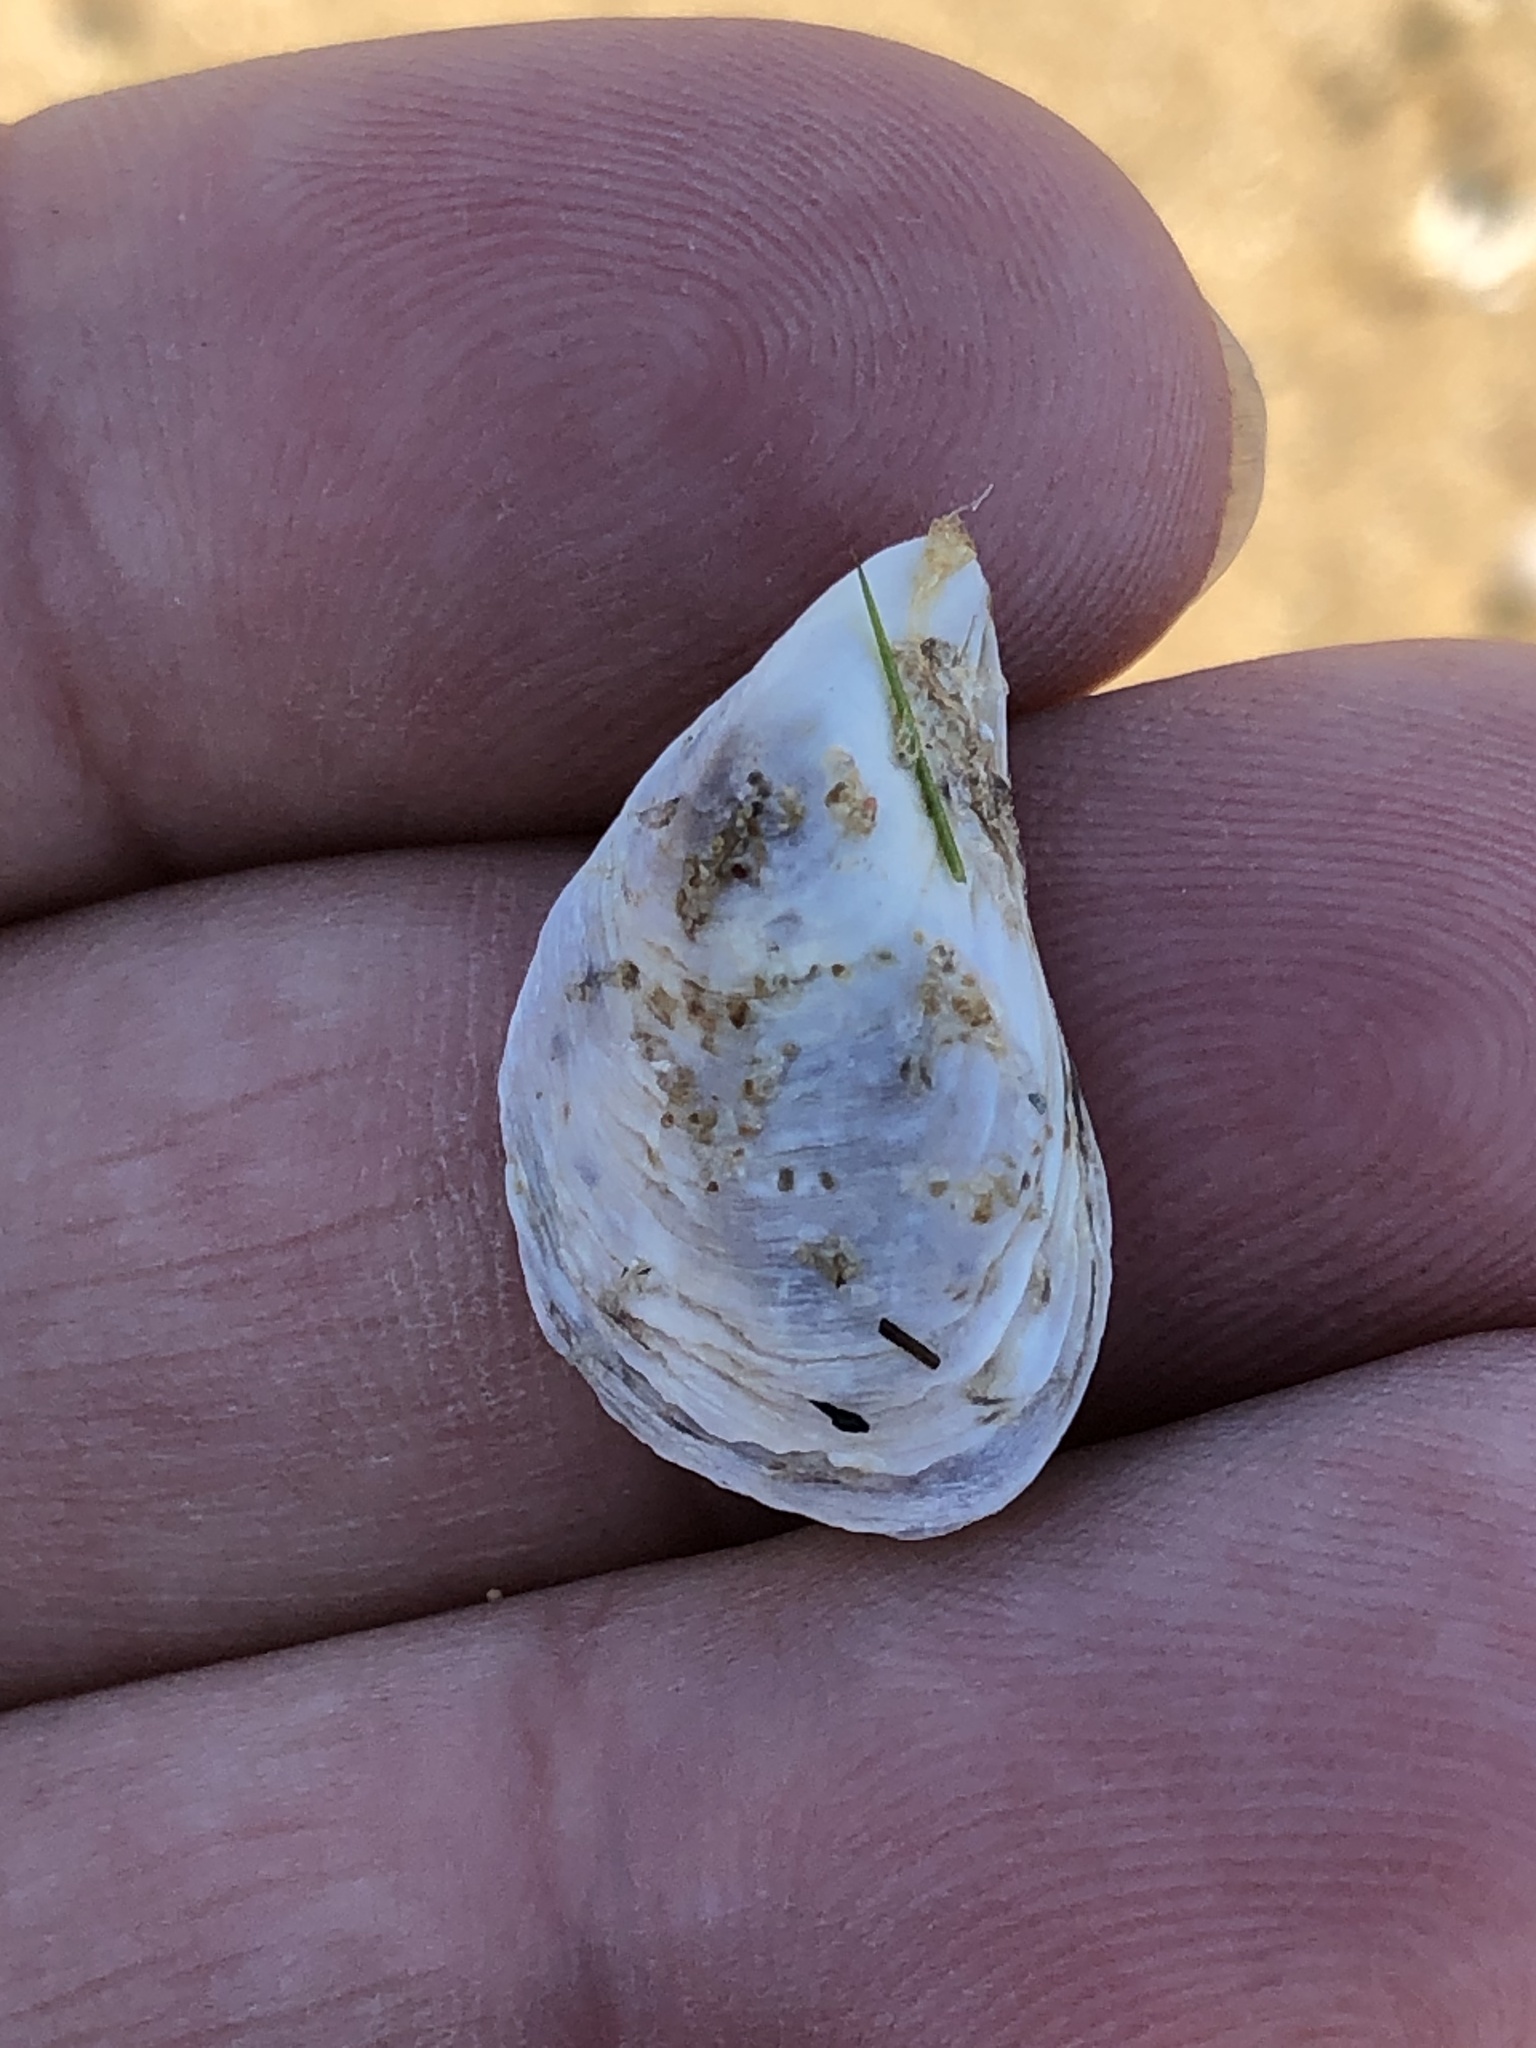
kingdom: Animalia
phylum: Mollusca
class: Bivalvia
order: Myida
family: Dreissenidae
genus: Dreissena
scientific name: Dreissena bugensis
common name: Quagga mussel
